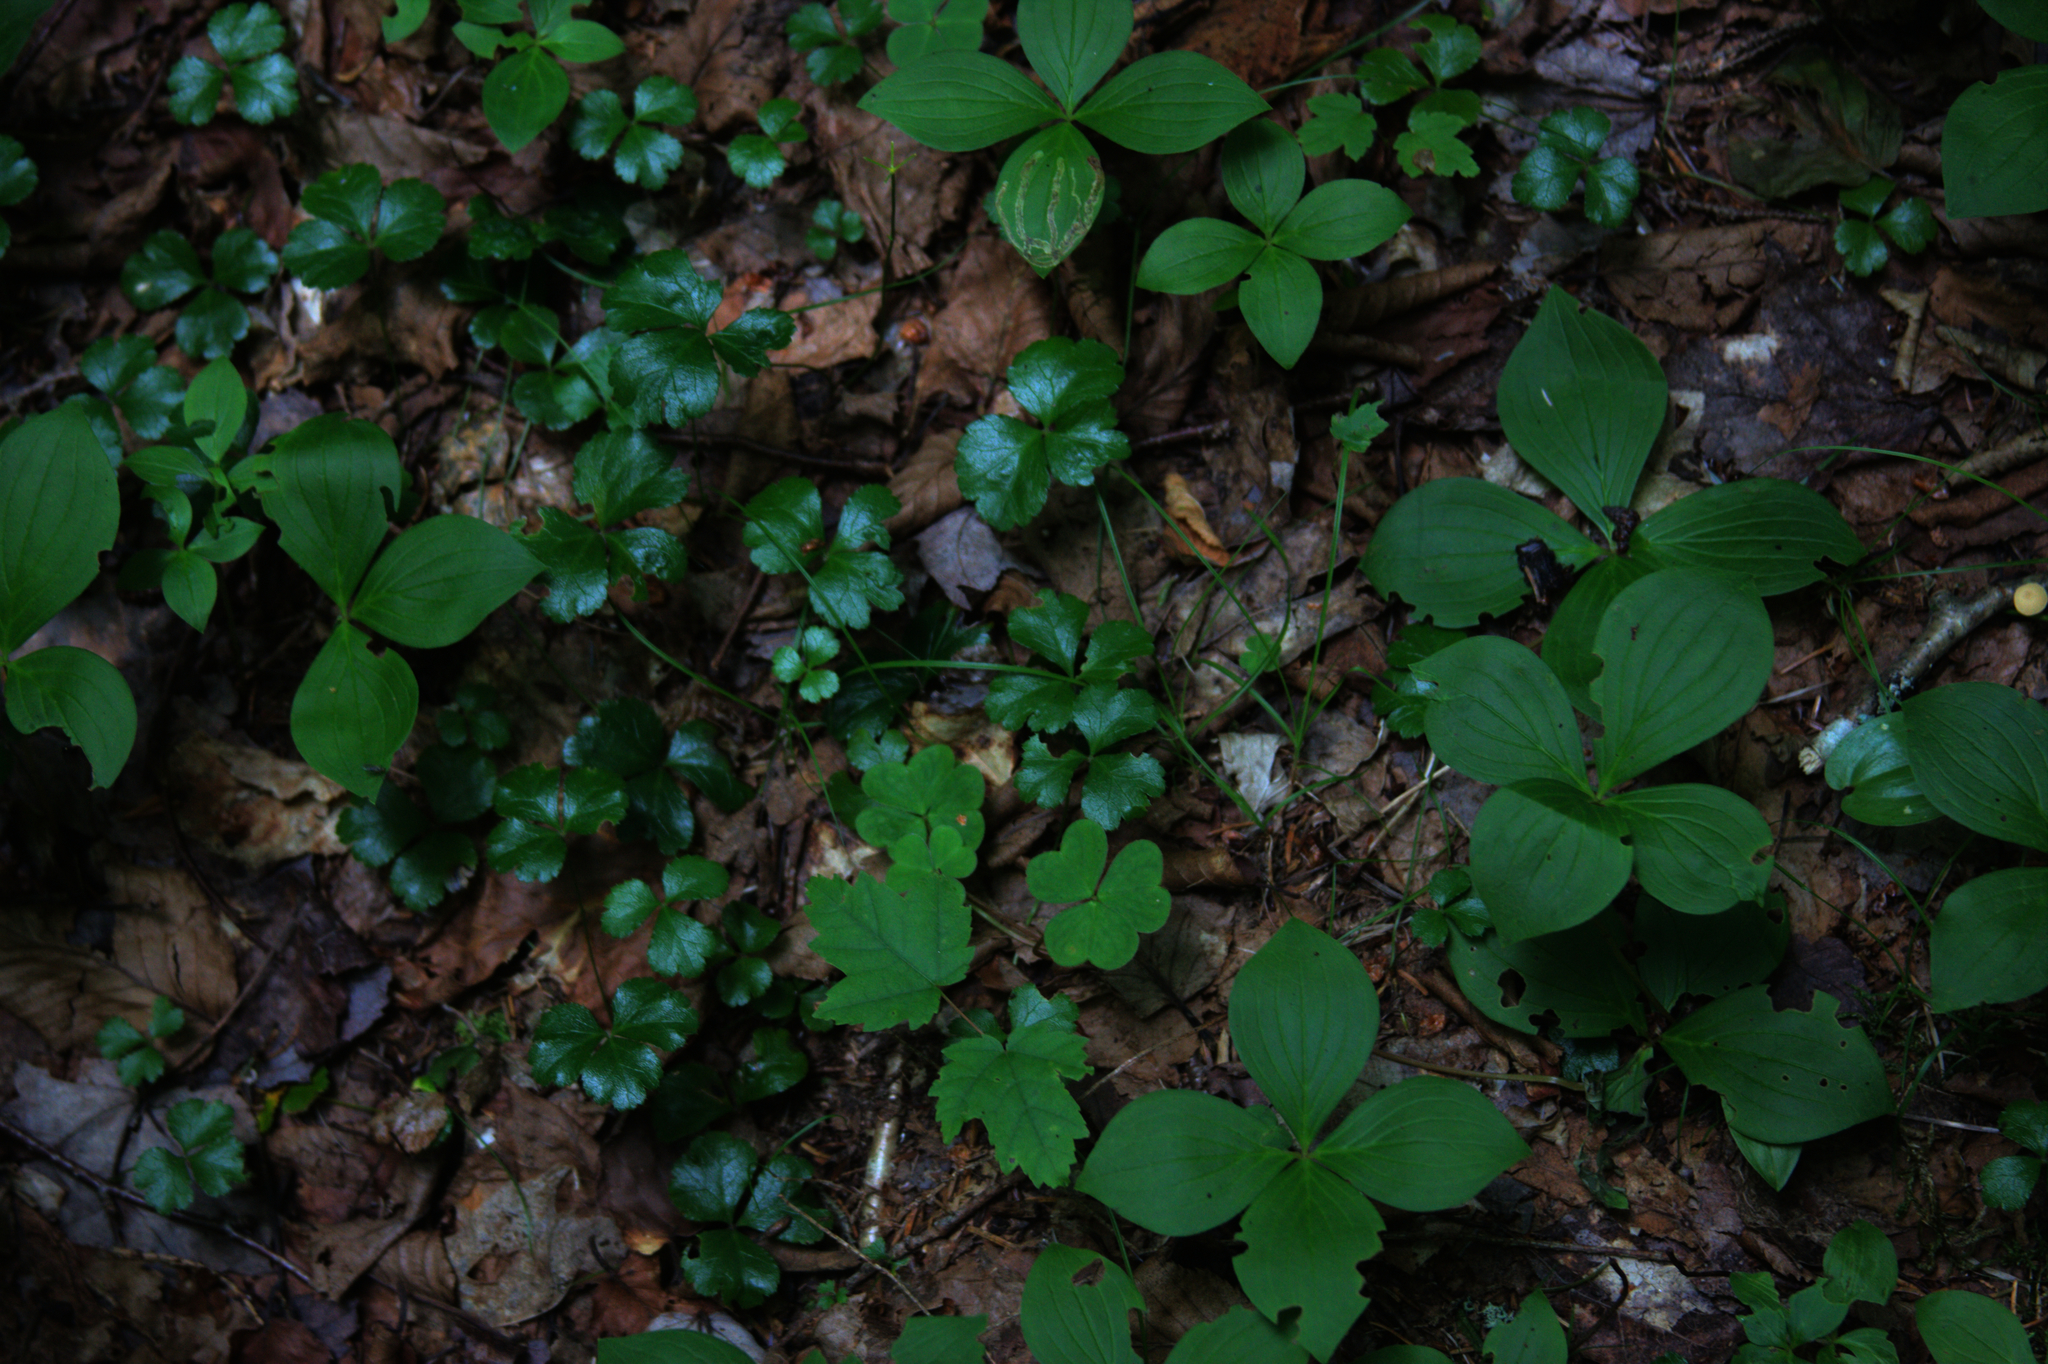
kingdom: Plantae
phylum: Tracheophyta
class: Magnoliopsida
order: Ranunculales
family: Ranunculaceae
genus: Coptis
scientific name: Coptis trifolia
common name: Canker-root
